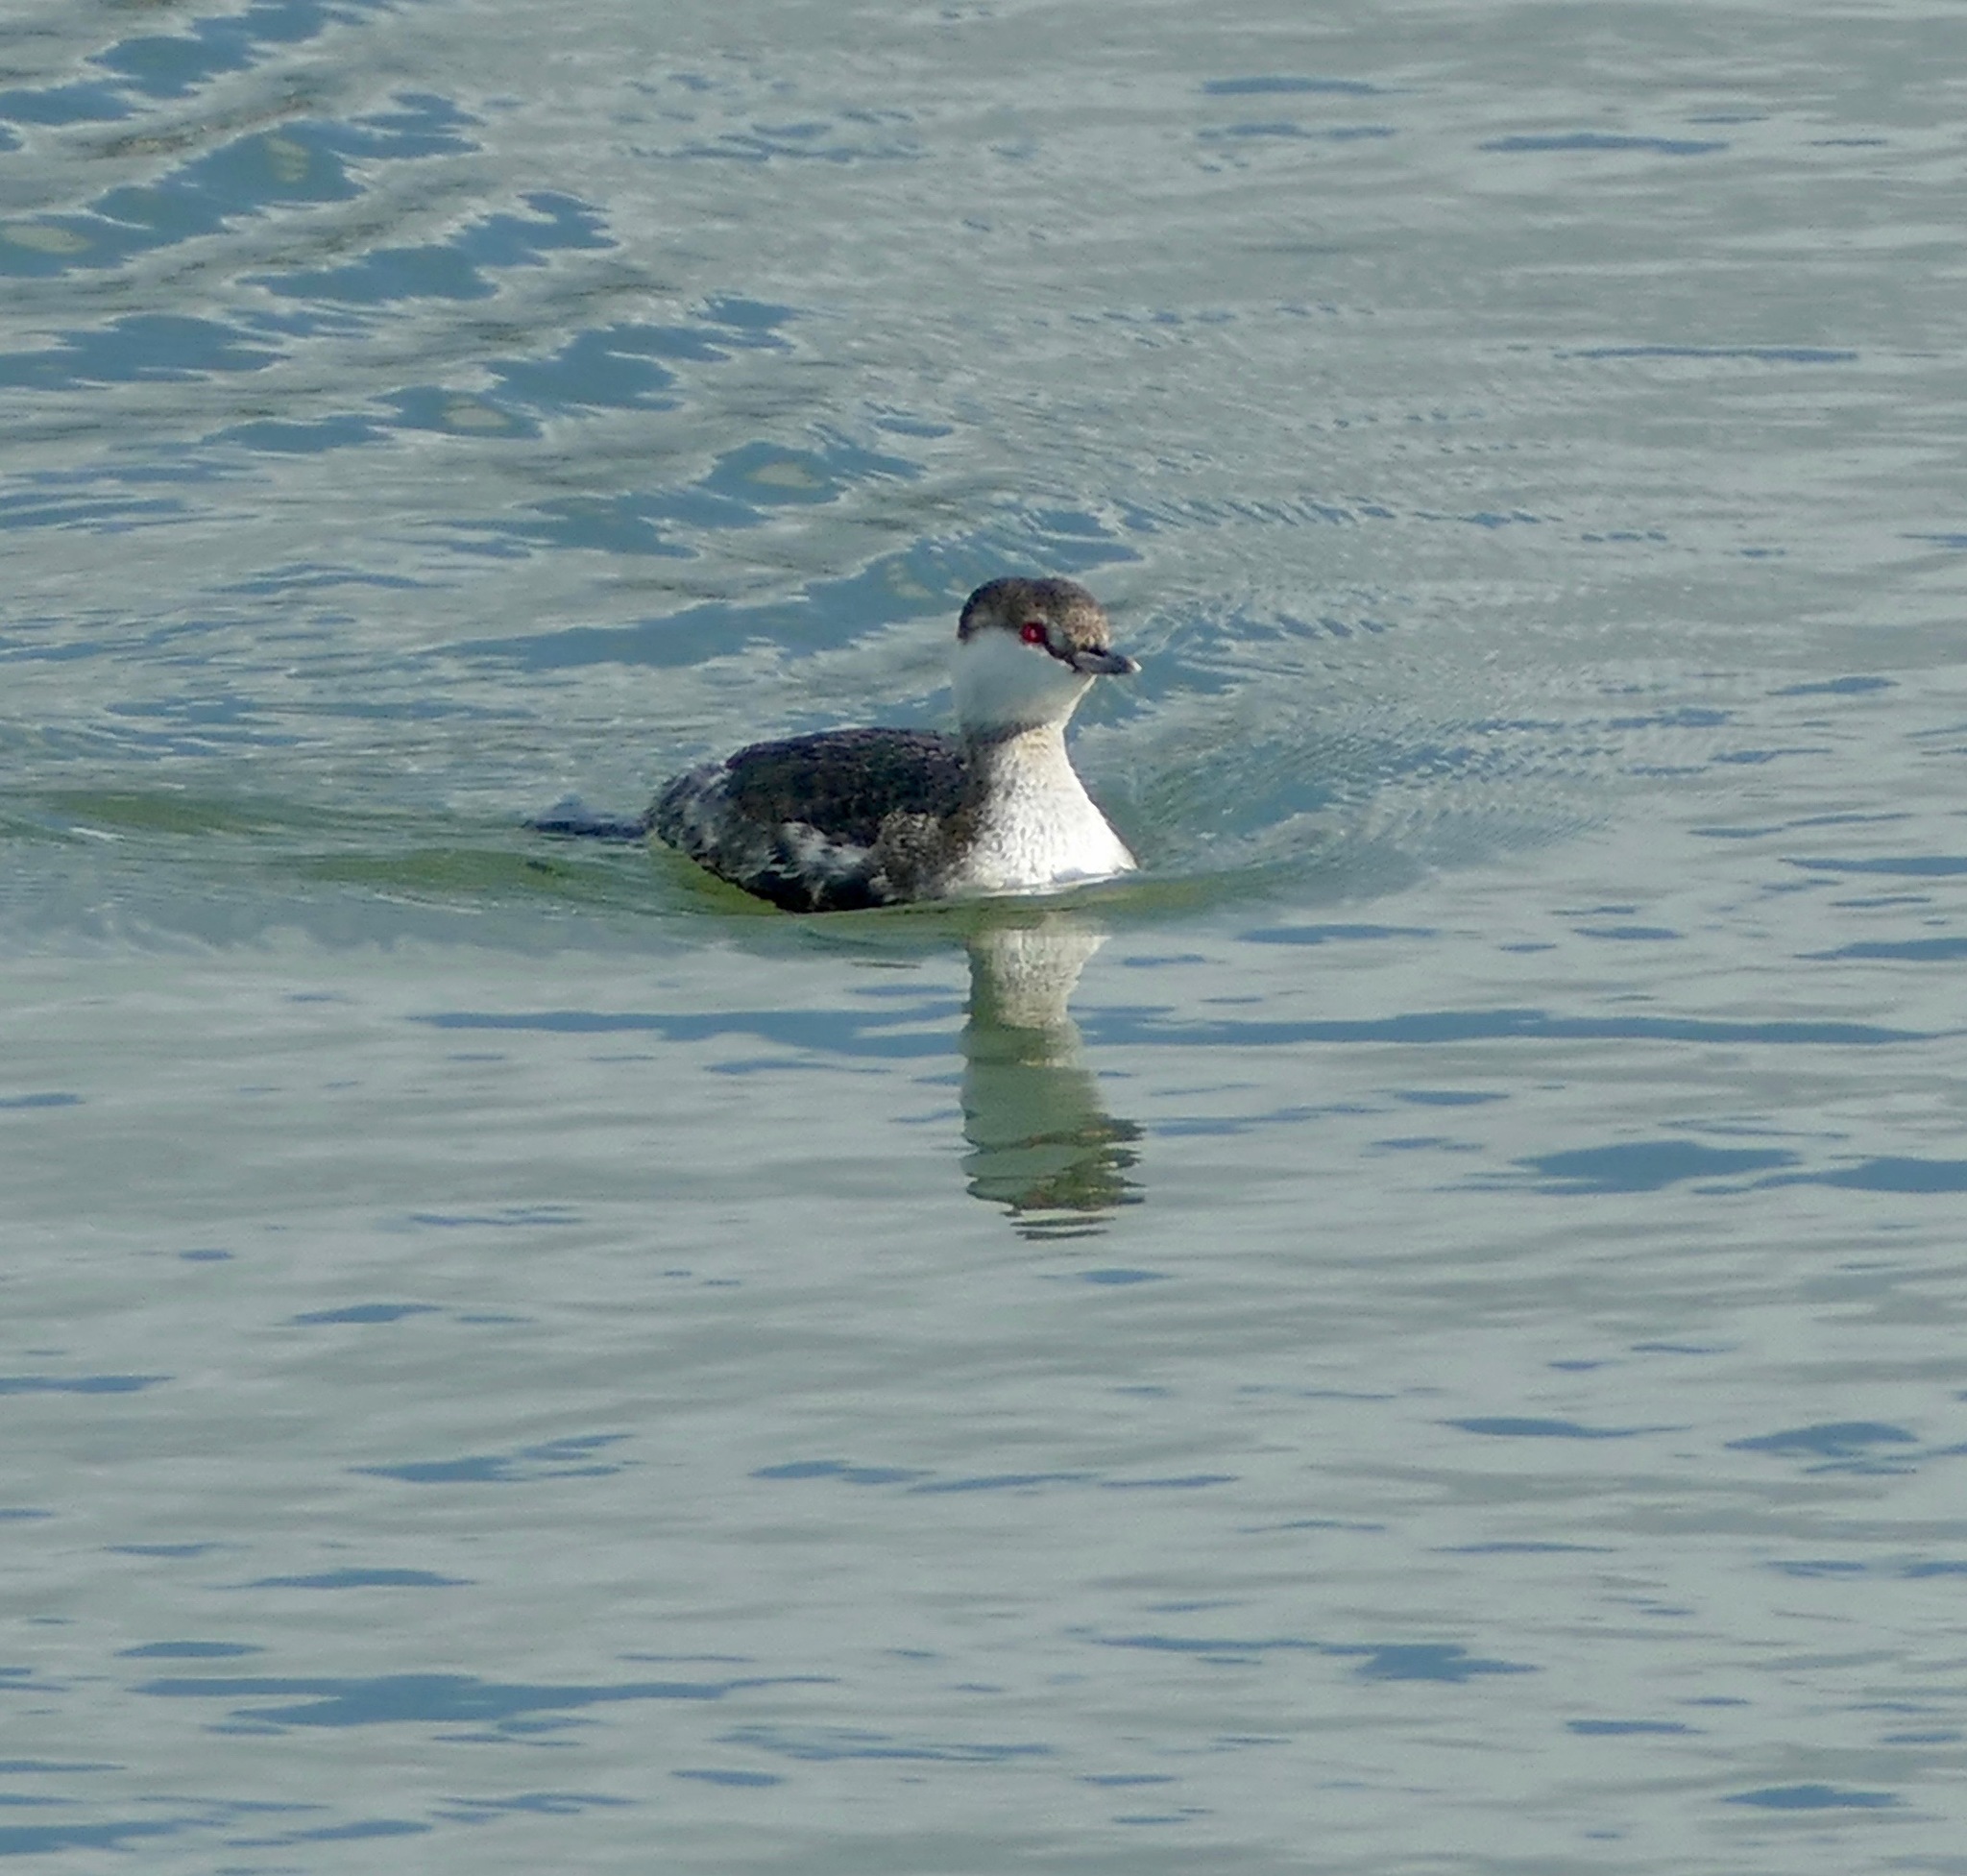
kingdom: Animalia
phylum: Chordata
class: Aves
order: Podicipediformes
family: Podicipedidae
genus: Podiceps
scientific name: Podiceps auritus
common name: Horned grebe
